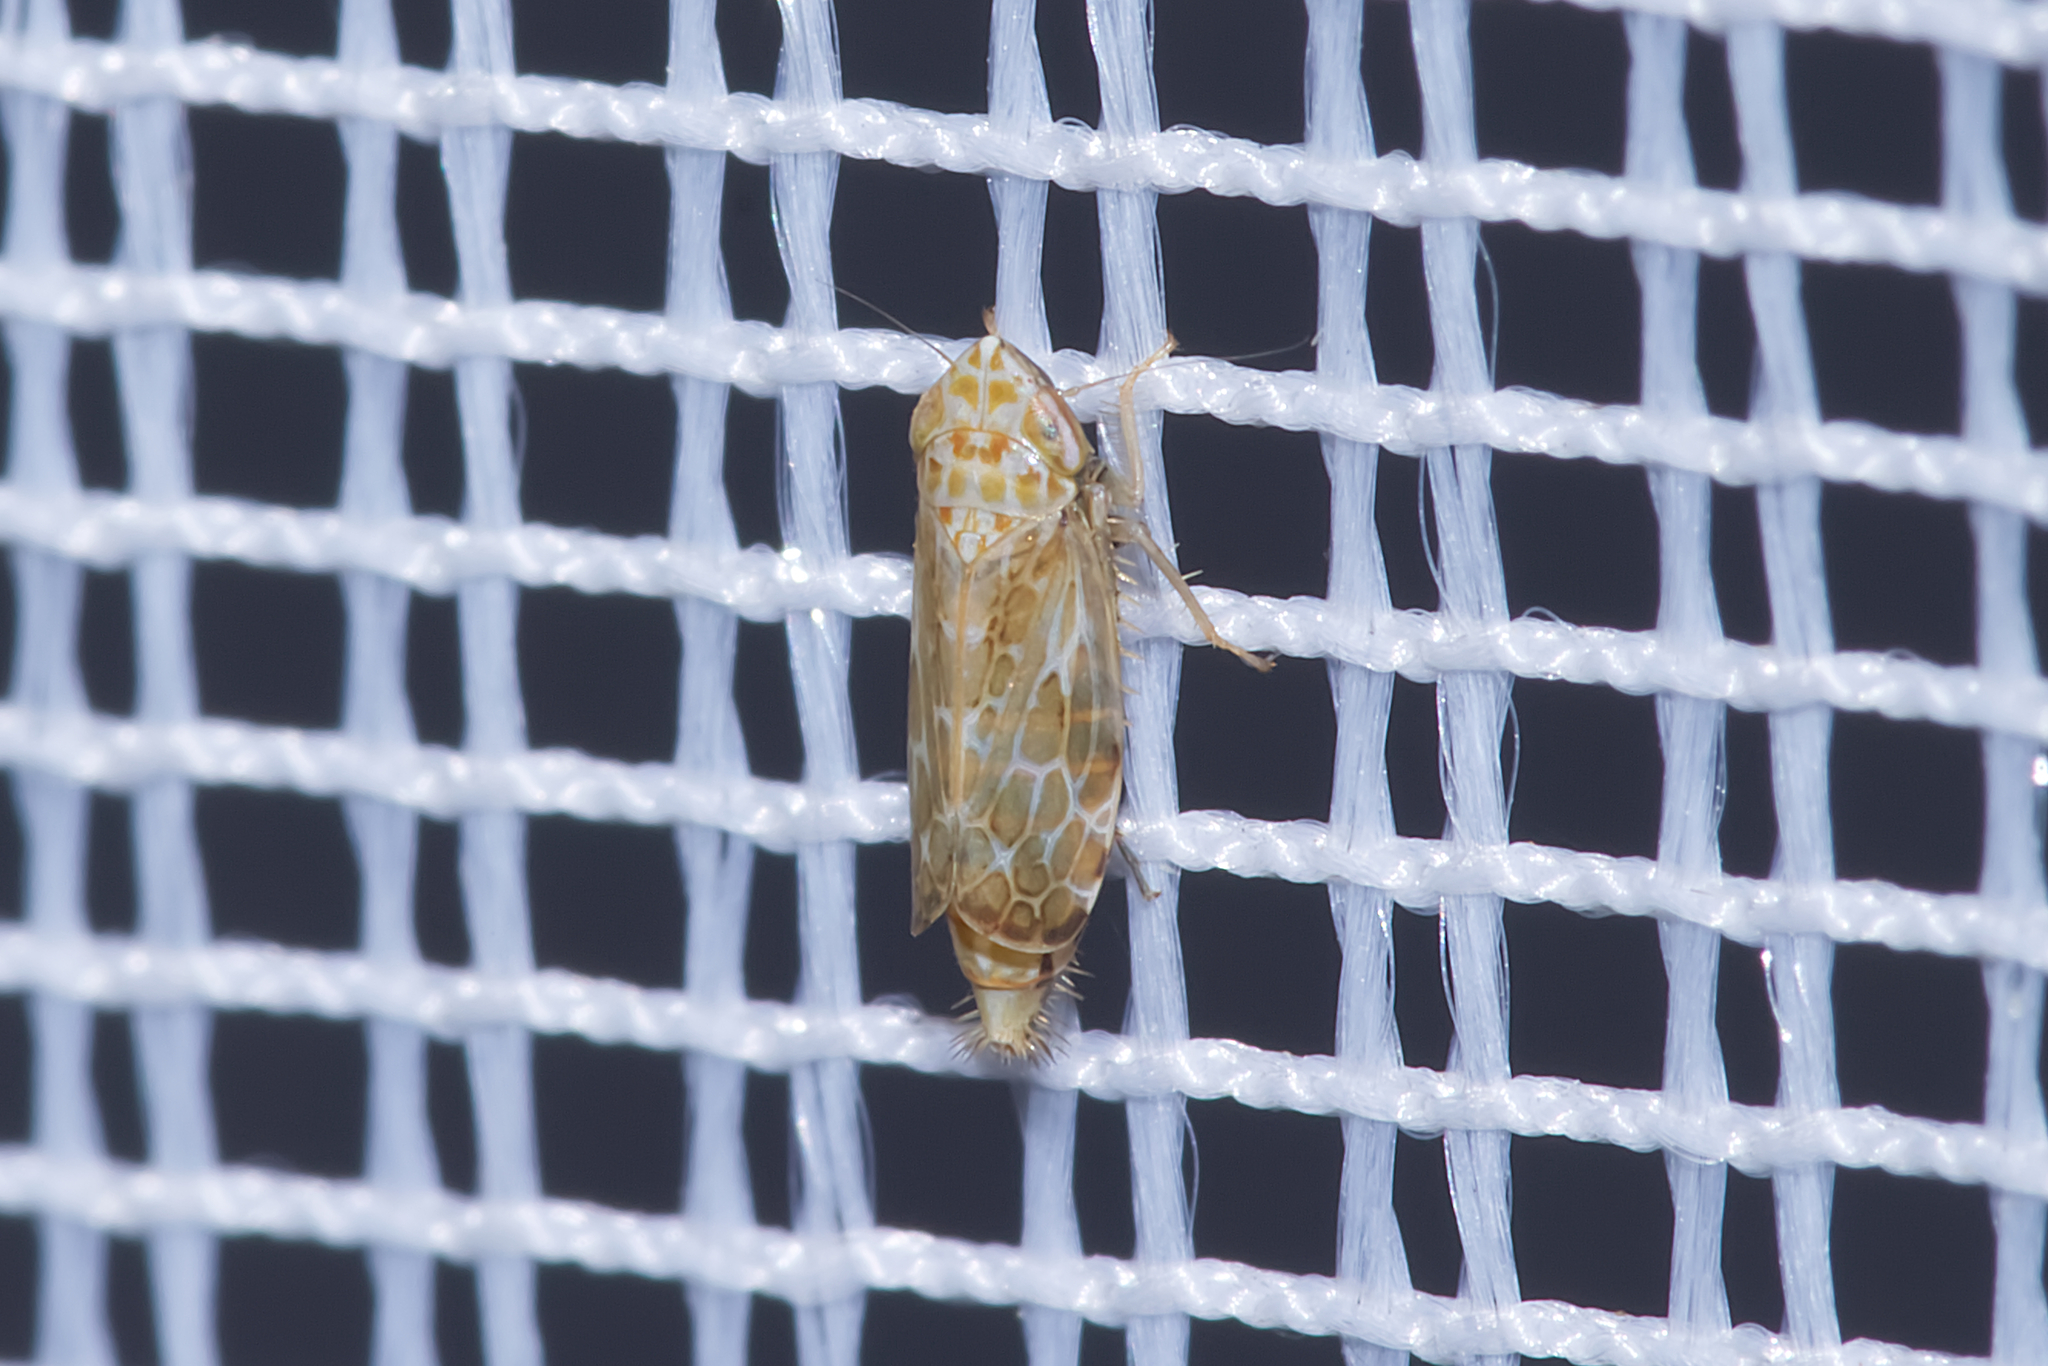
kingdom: Animalia
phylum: Arthropoda
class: Insecta
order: Hemiptera
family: Cicadellidae
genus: Errastunus
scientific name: Errastunus ocellaris
